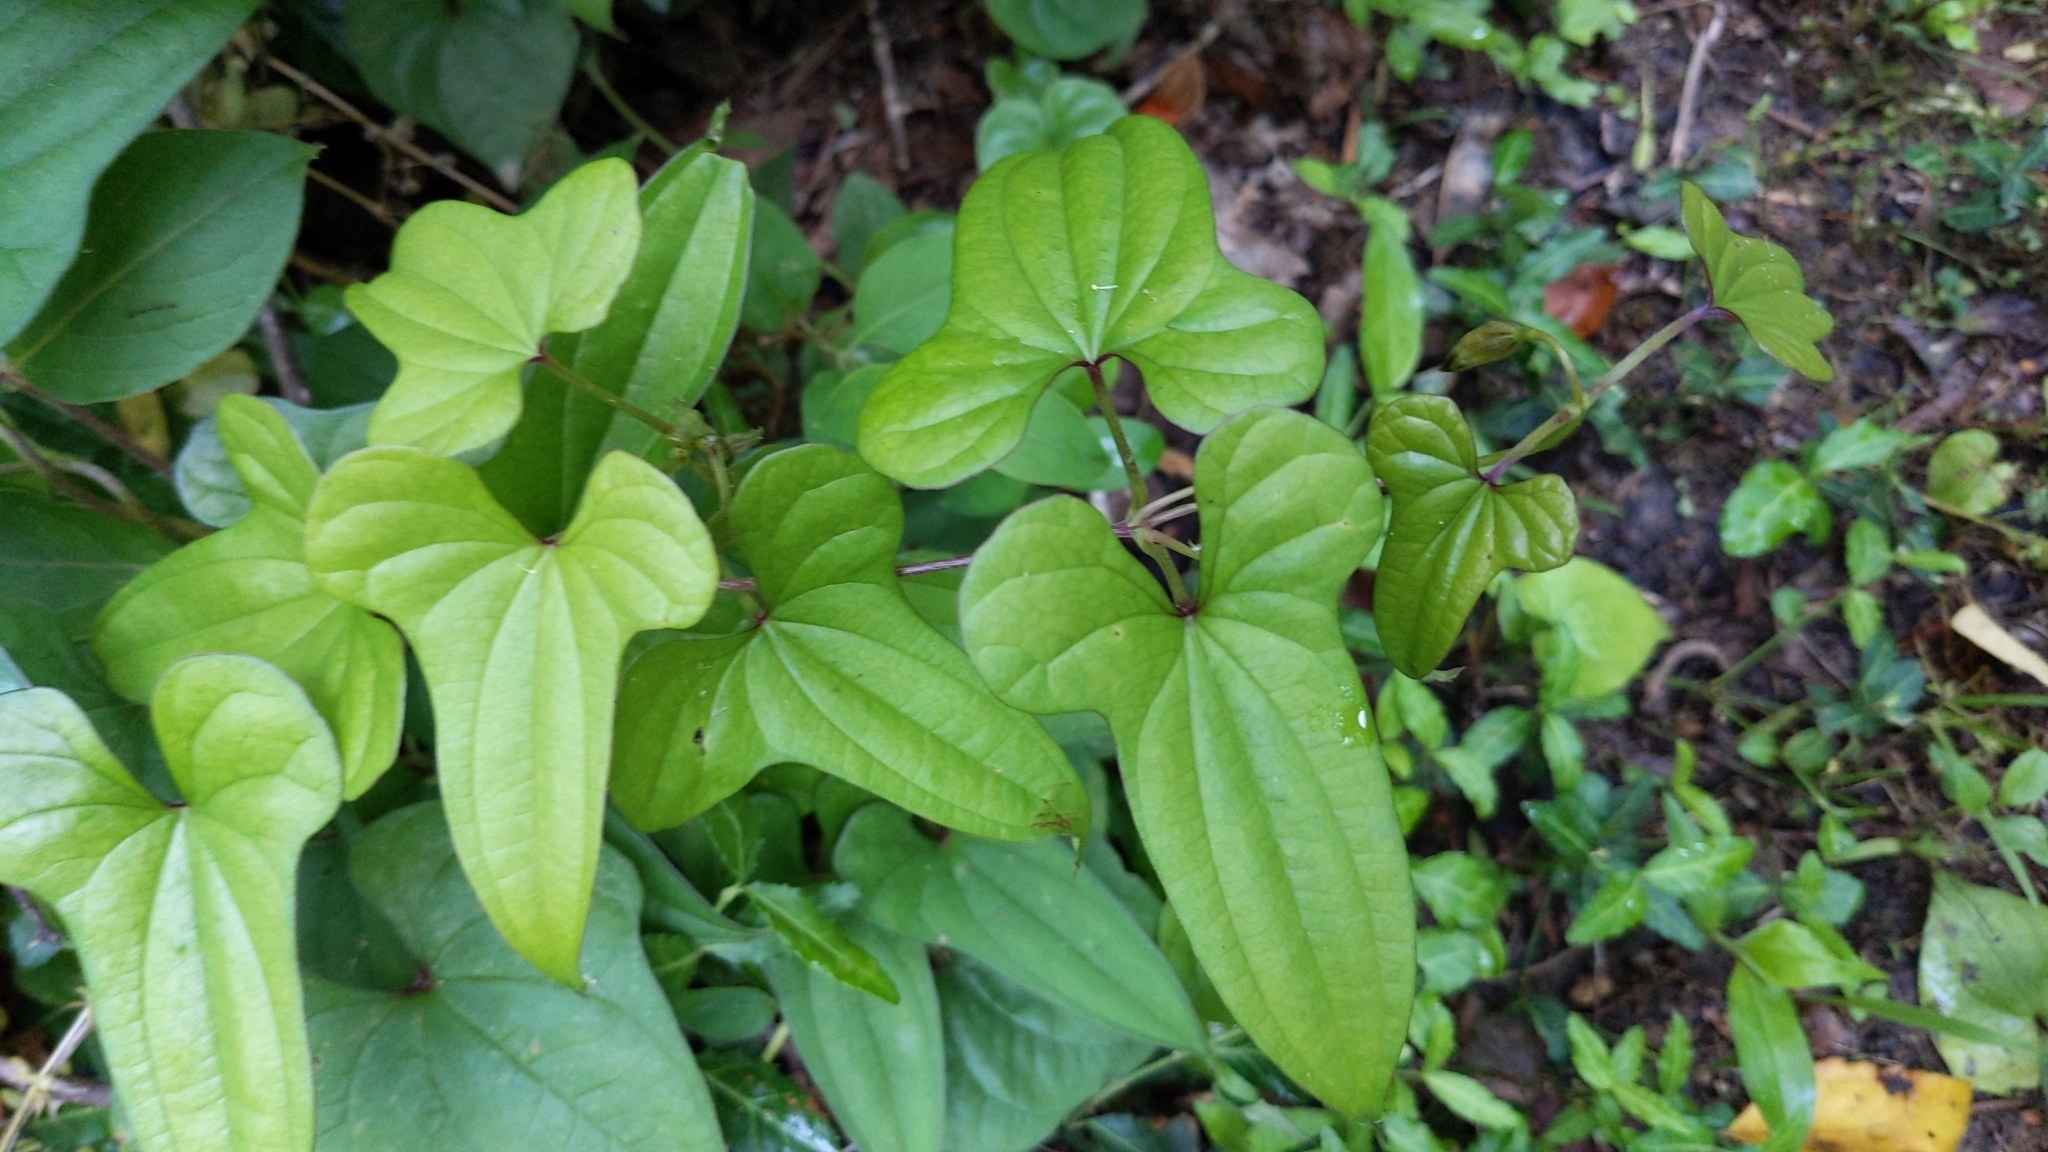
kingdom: Plantae
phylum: Tracheophyta
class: Liliopsida
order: Dioscoreales
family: Dioscoreaceae
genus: Dioscorea
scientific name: Dioscorea polystachya
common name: Chinese yam
